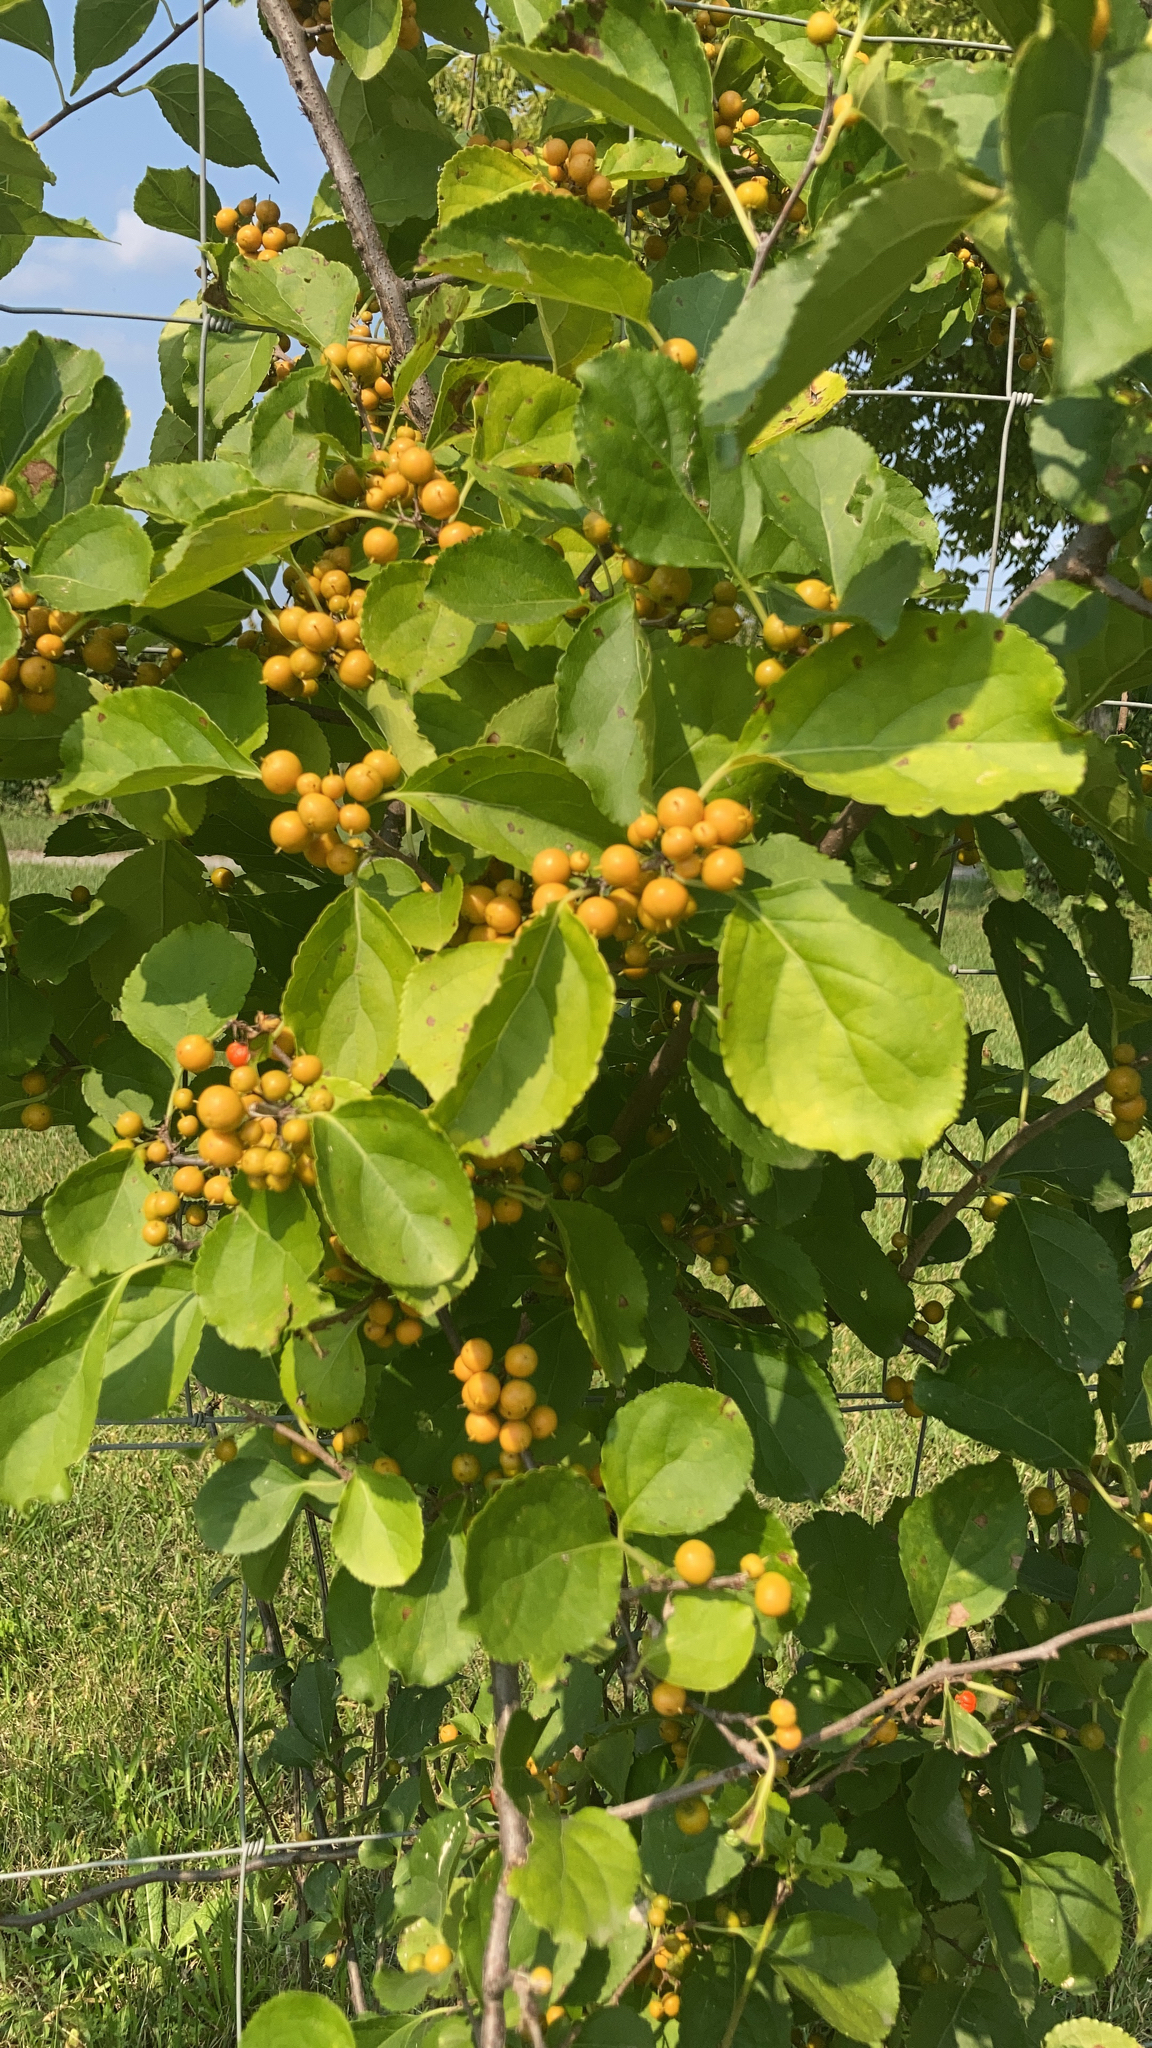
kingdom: Plantae
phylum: Tracheophyta
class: Magnoliopsida
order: Celastrales
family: Celastraceae
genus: Celastrus
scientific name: Celastrus orbiculatus
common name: Oriental bittersweet
